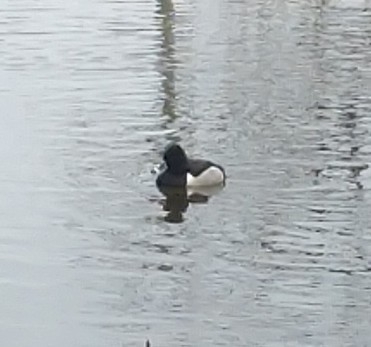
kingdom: Animalia
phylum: Chordata
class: Aves
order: Anseriformes
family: Anatidae
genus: Aythya
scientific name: Aythya collaris
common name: Ring-necked duck
